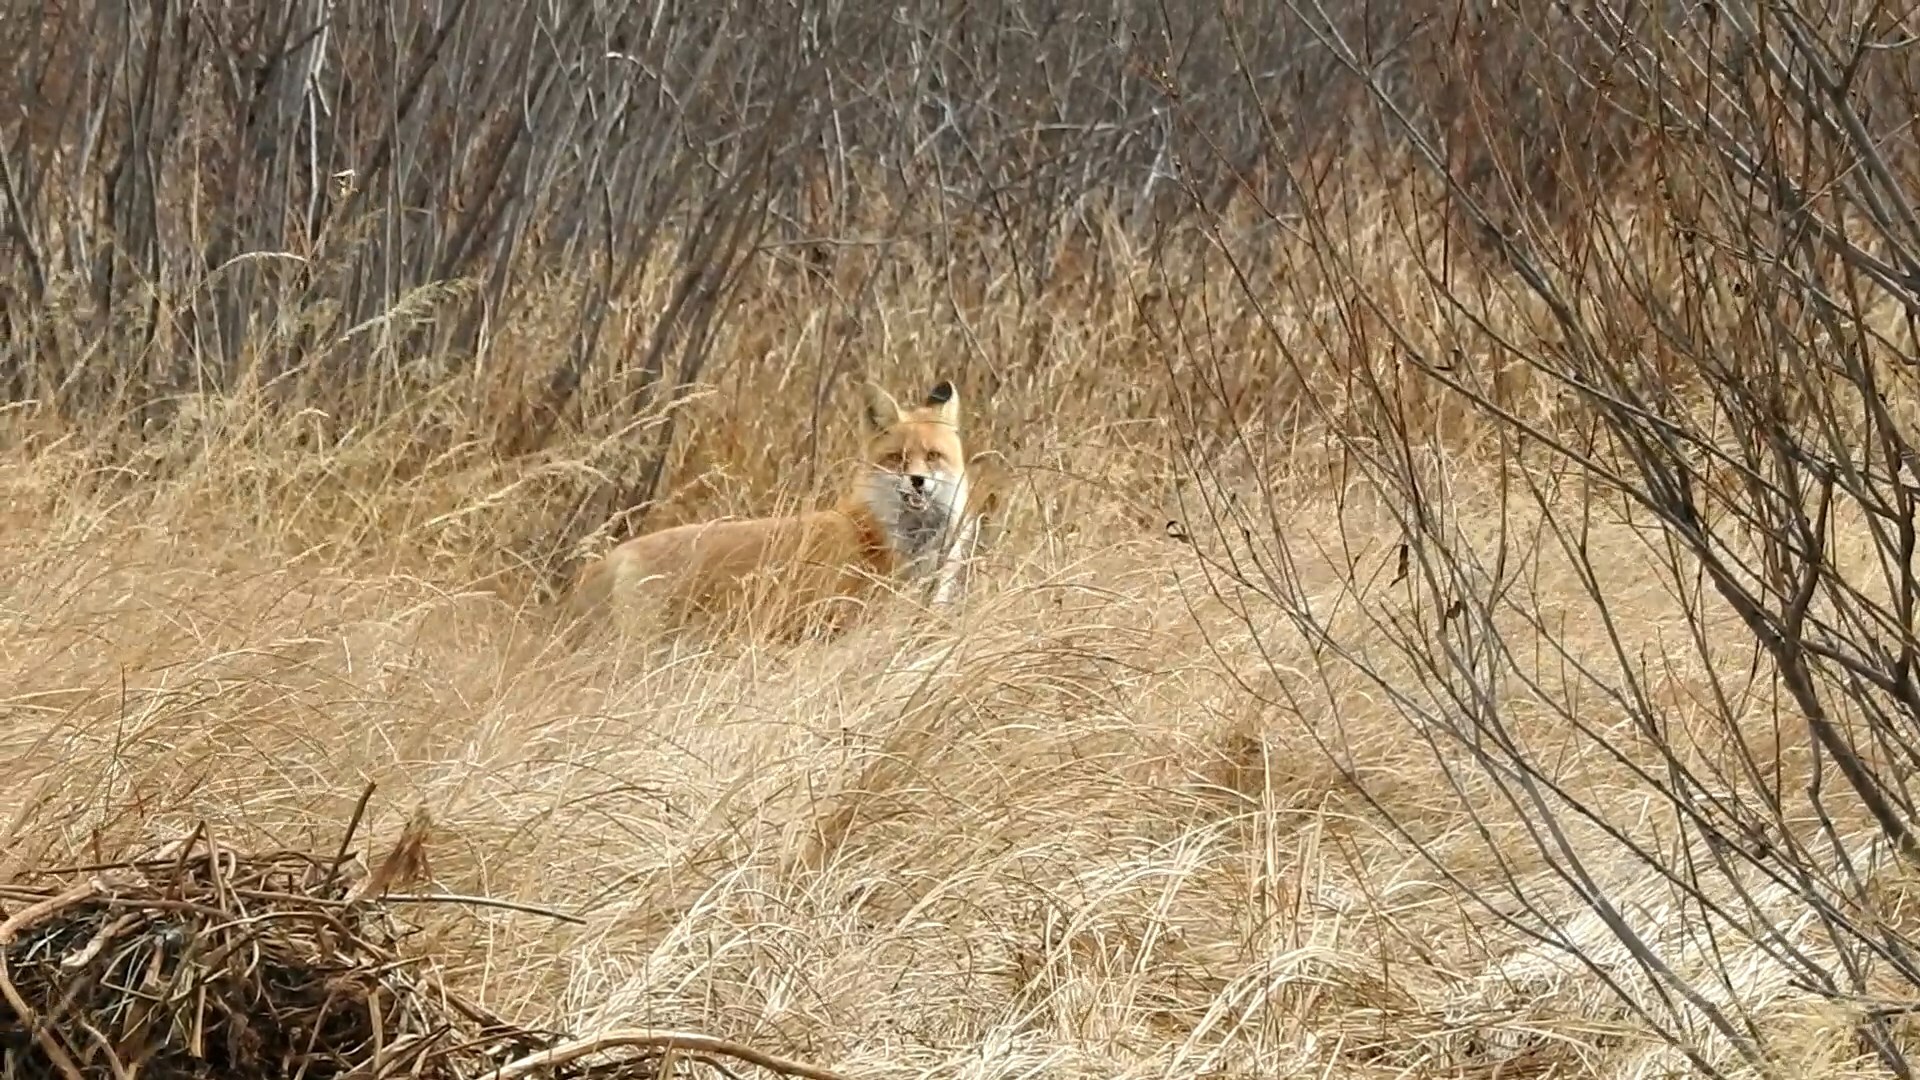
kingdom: Animalia
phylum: Chordata
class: Mammalia
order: Carnivora
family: Canidae
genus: Vulpes
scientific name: Vulpes vulpes
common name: Red fox
